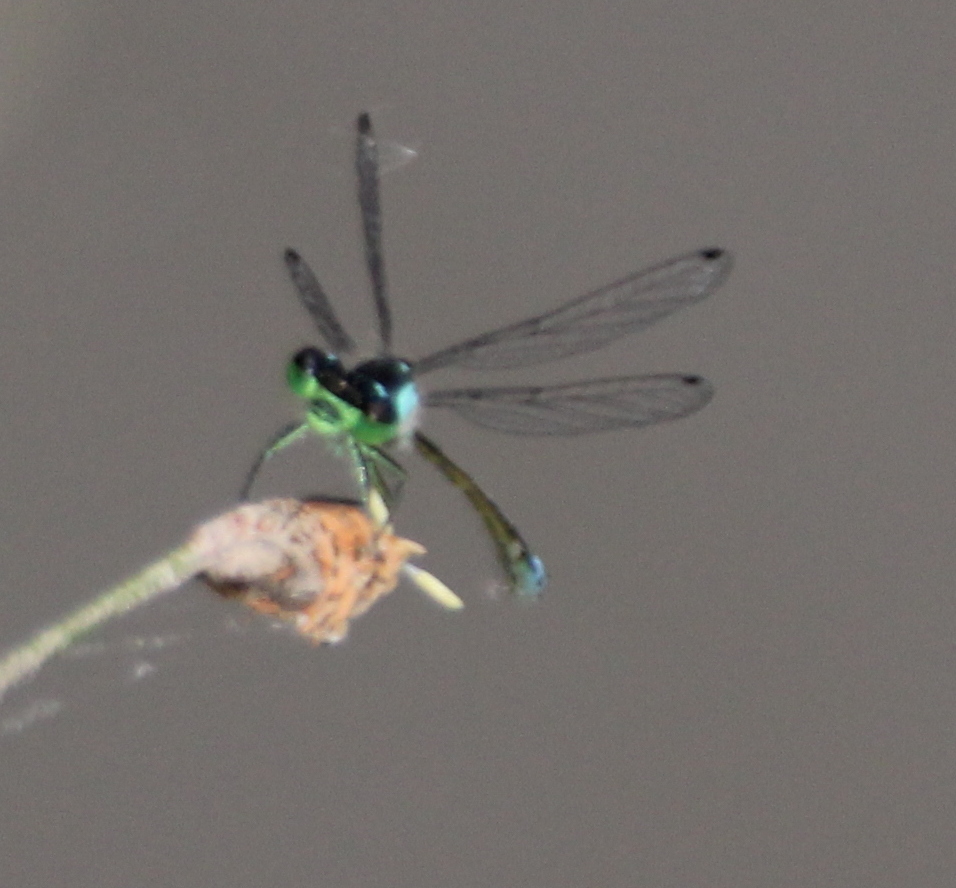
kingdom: Animalia
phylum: Arthropoda
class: Insecta
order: Odonata
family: Coenagrionidae
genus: Ischnura
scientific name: Ischnura cervula
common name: Pacific forktail
